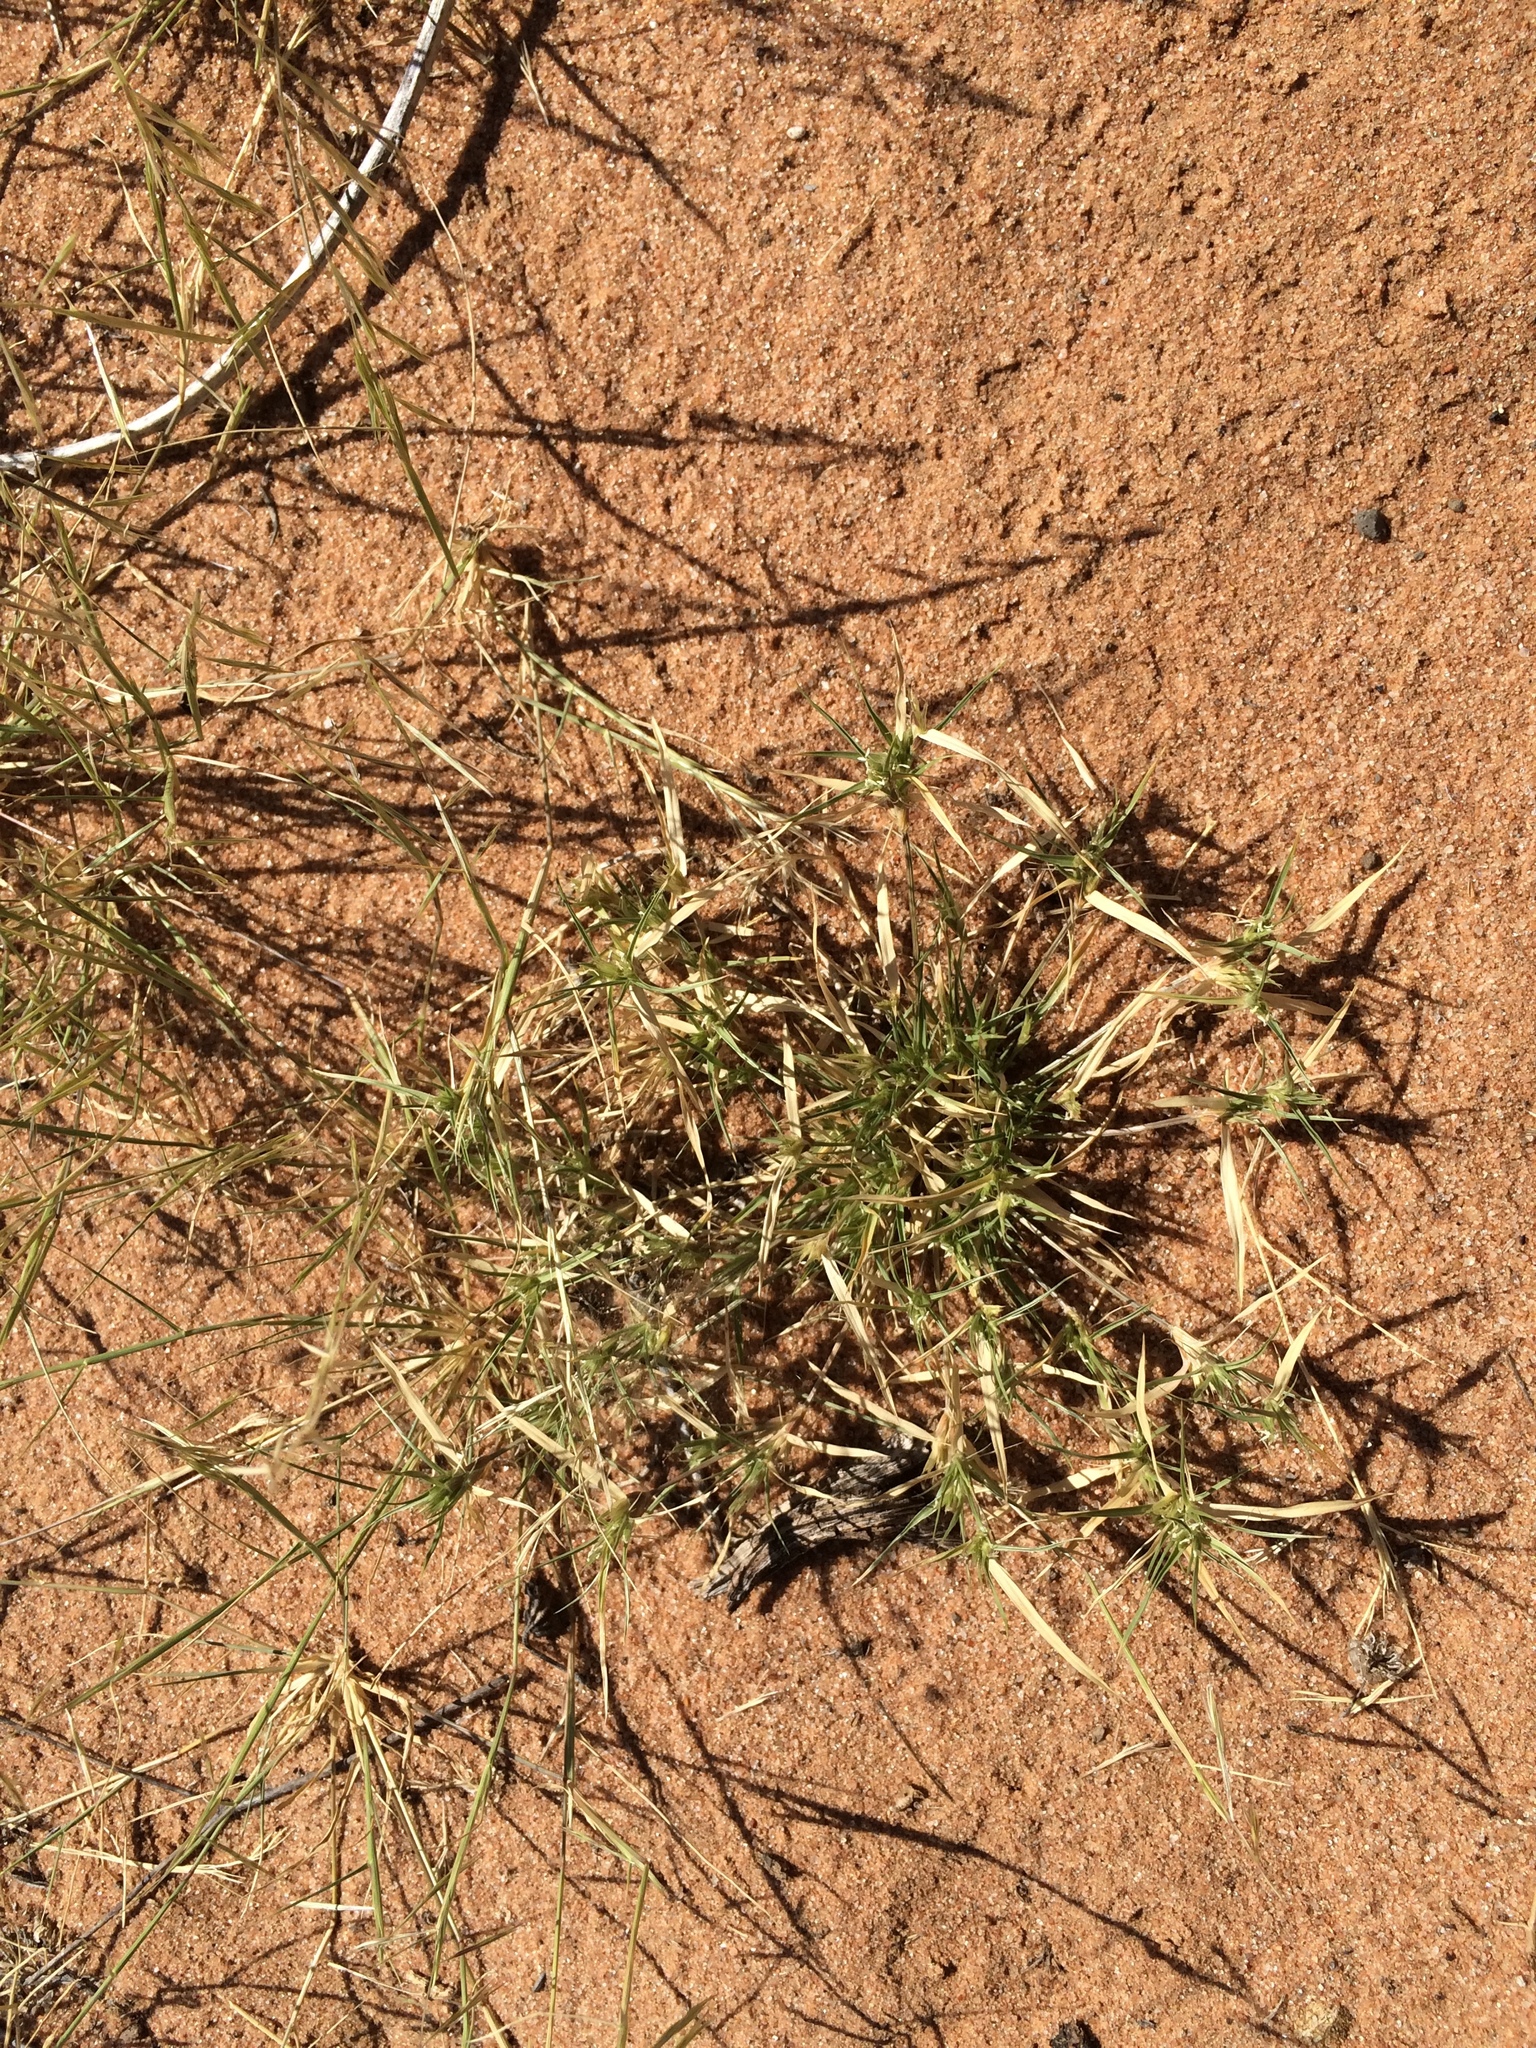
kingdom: Plantae
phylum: Tracheophyta
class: Liliopsida
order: Poales
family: Poaceae
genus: Munroa
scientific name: Munroa squarrosa
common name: False buffalo grass
